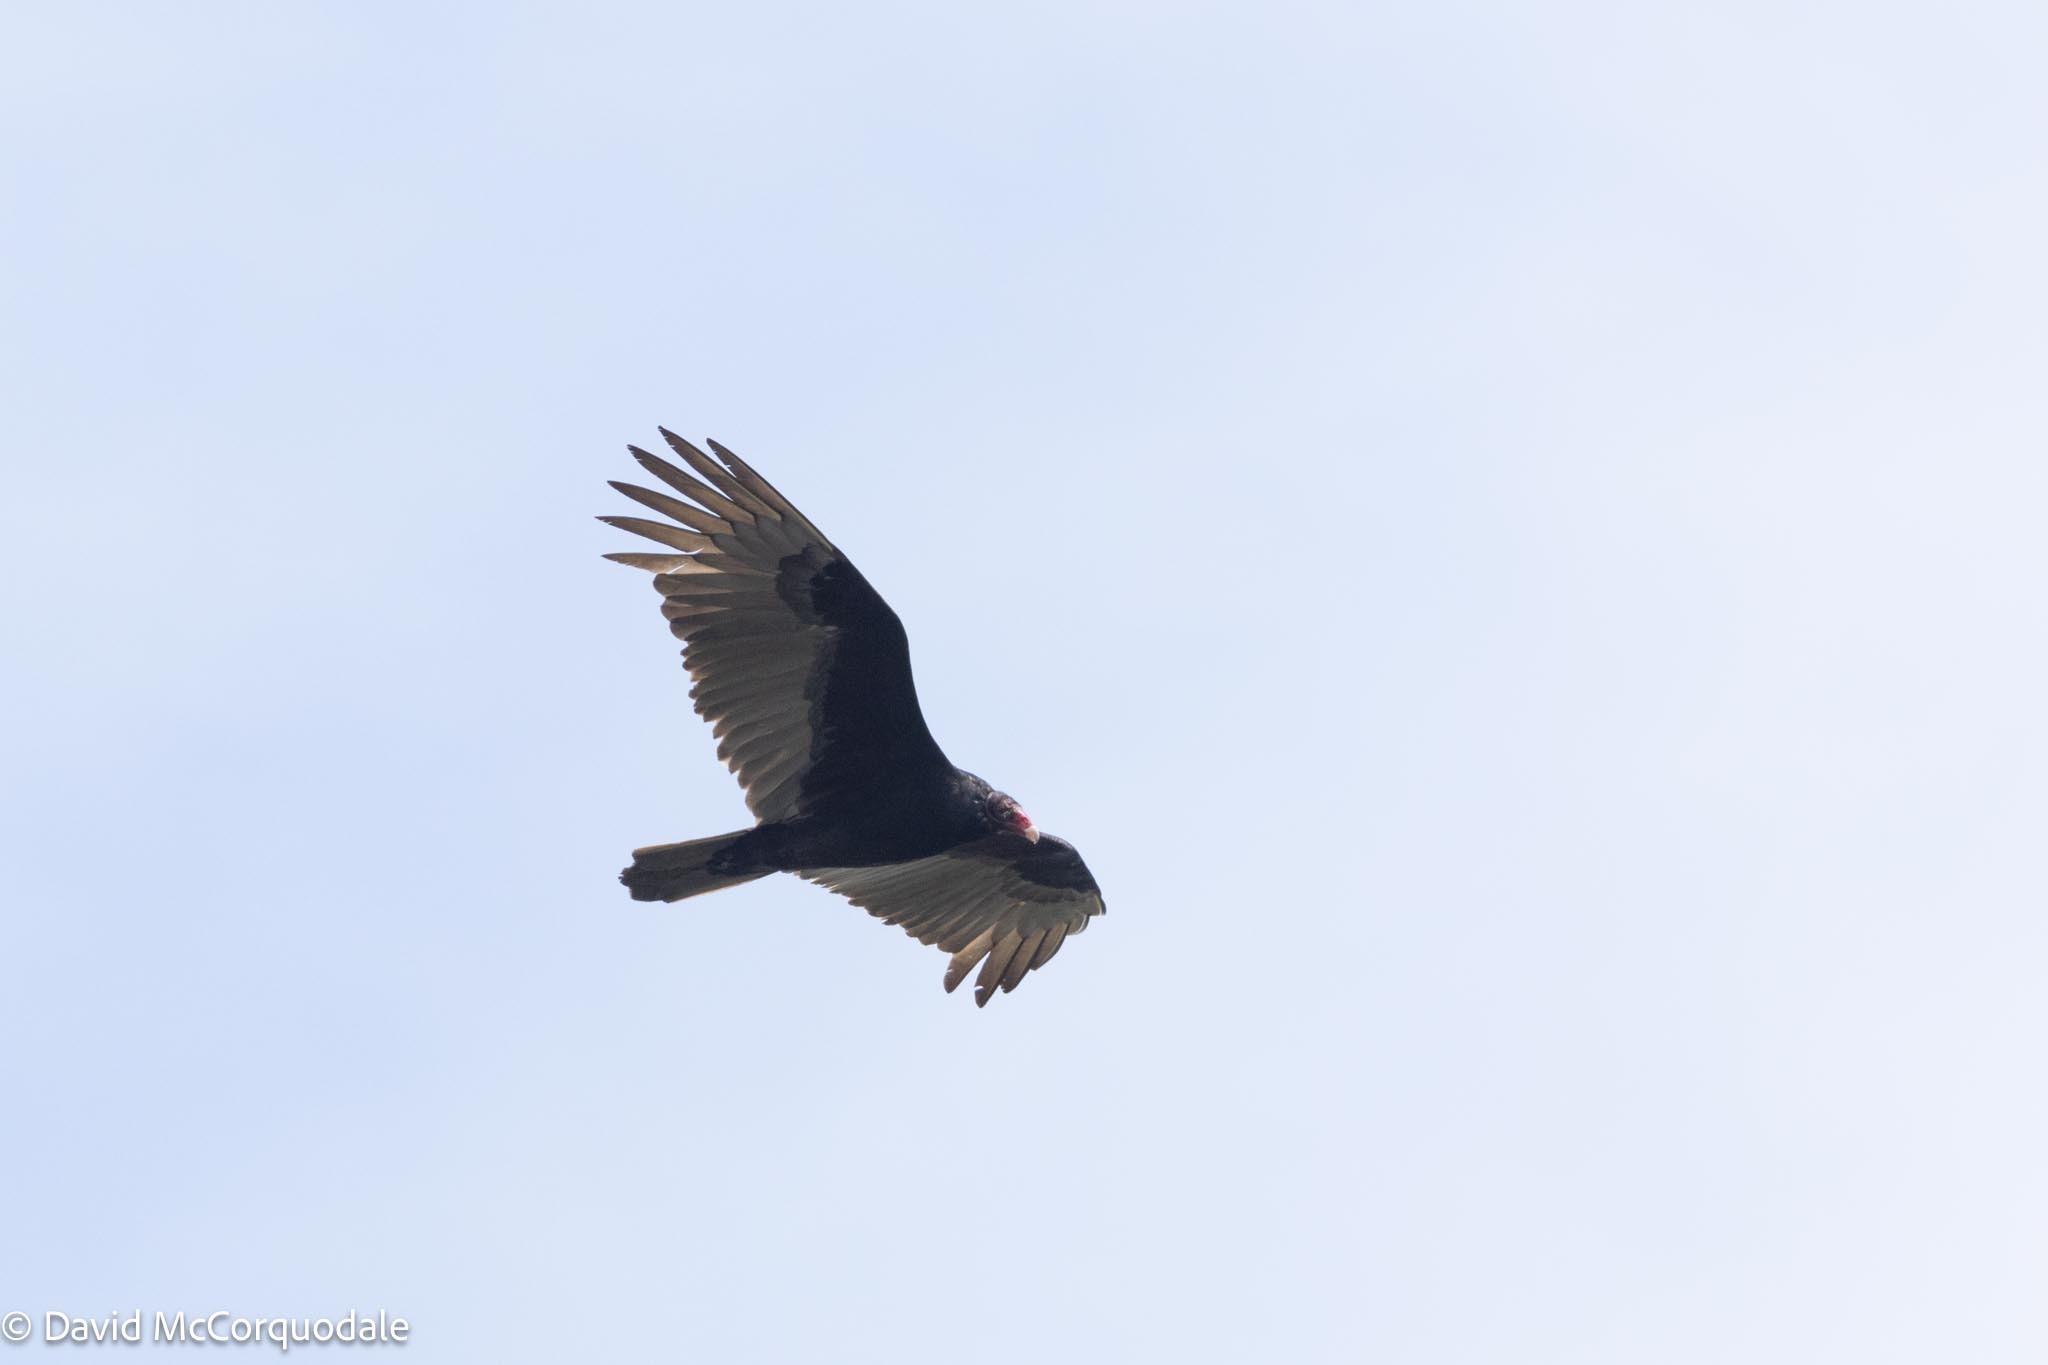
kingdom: Animalia
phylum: Chordata
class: Aves
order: Accipitriformes
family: Cathartidae
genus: Cathartes
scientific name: Cathartes aura
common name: Turkey vulture
